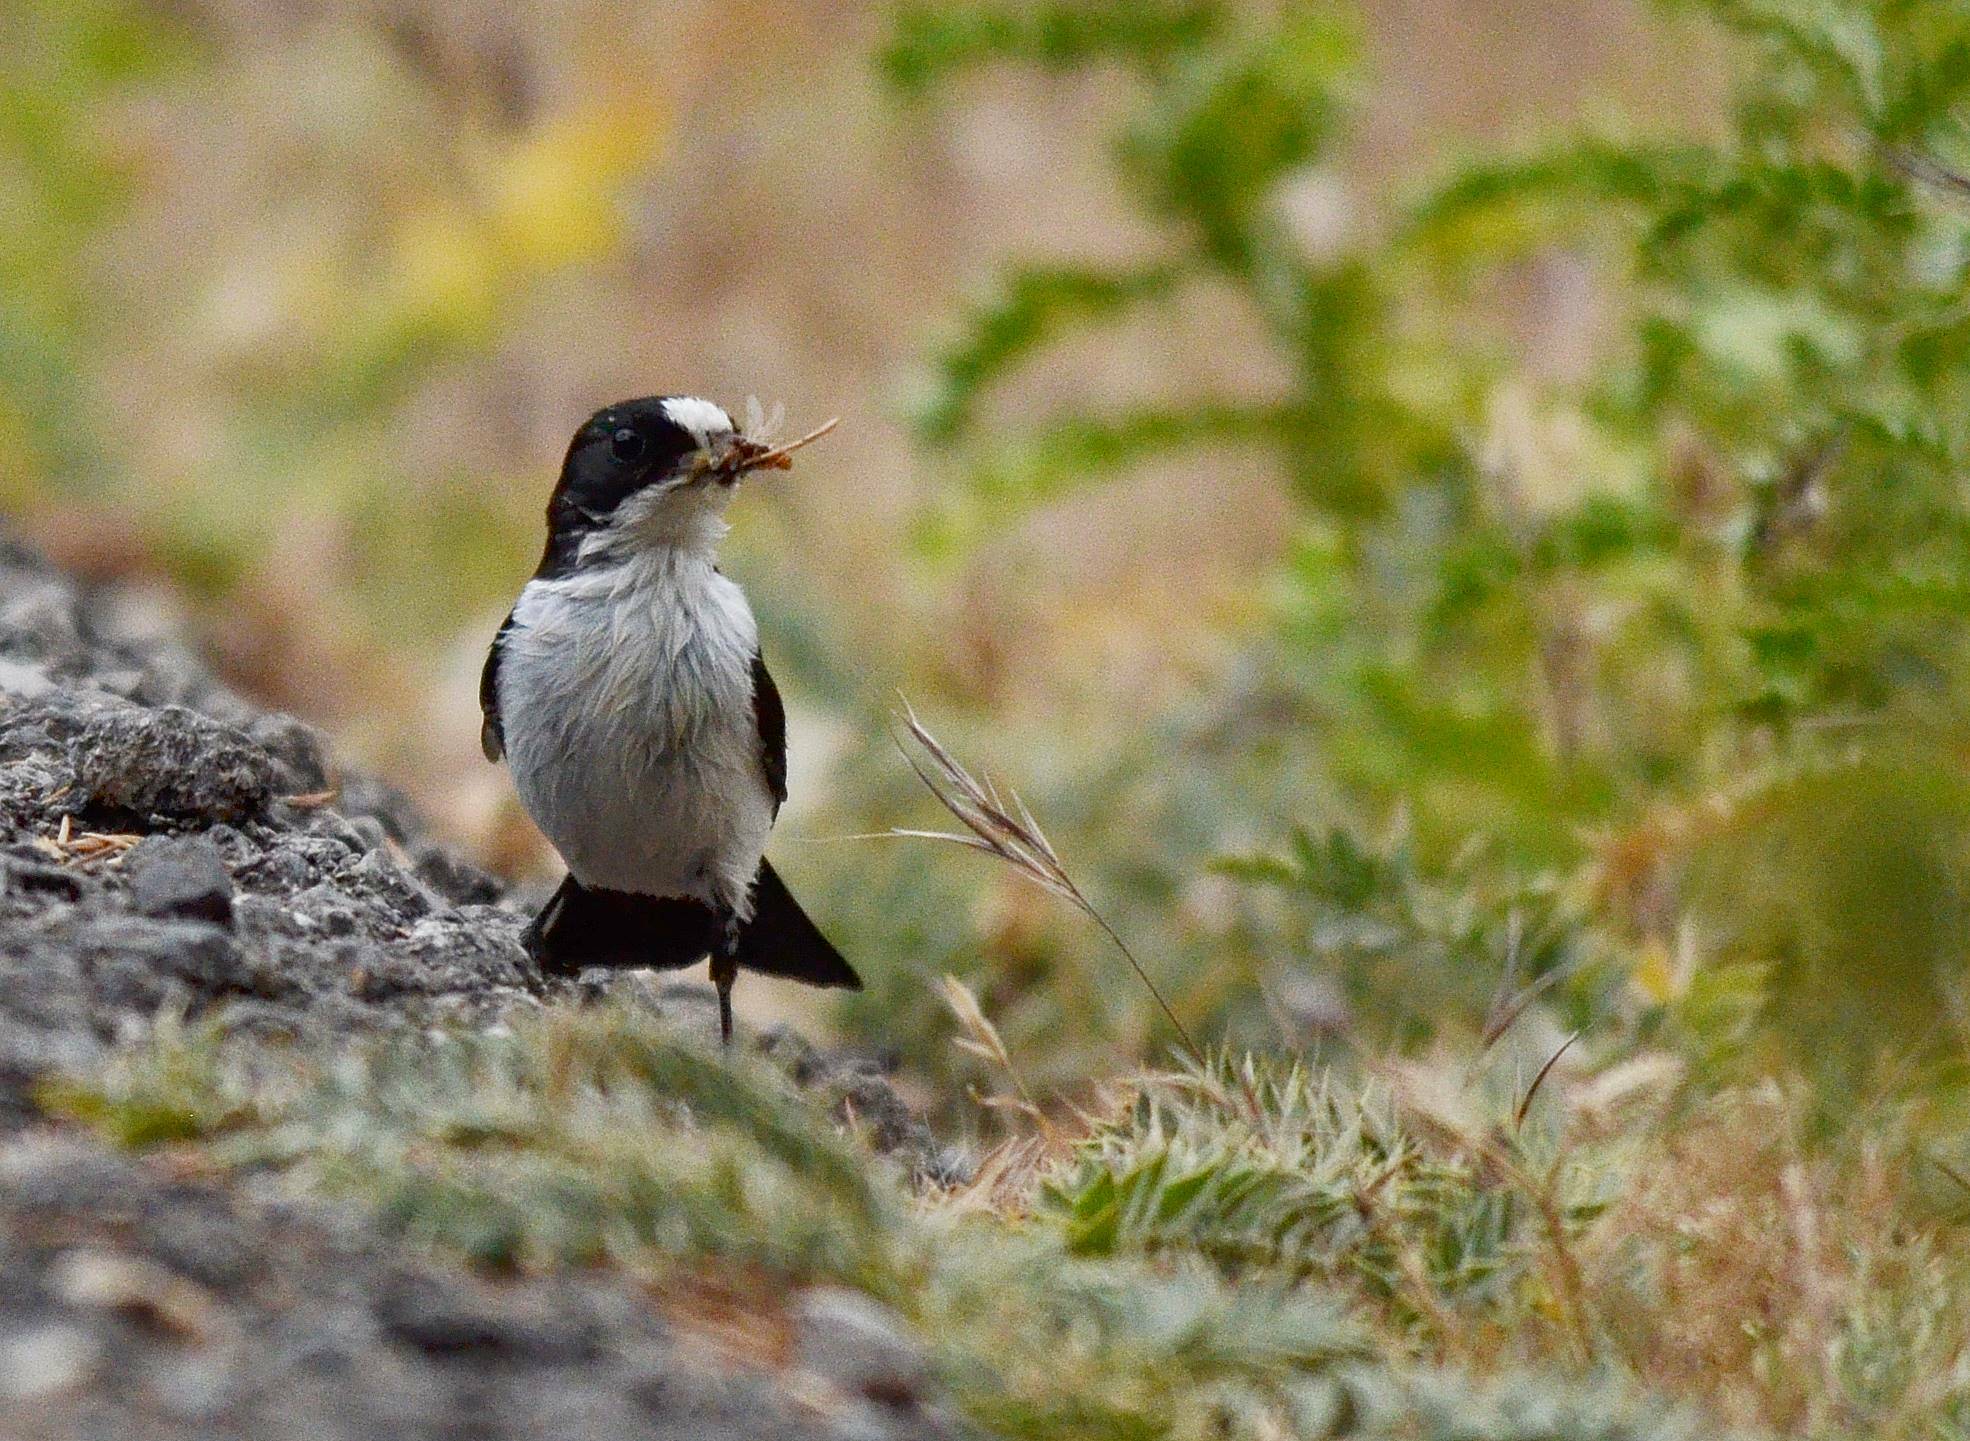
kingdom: Animalia
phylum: Chordata
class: Aves
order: Passeriformes
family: Muscicapidae
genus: Ficedula
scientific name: Ficedula speculigera
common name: Atlas pied flycatcher
